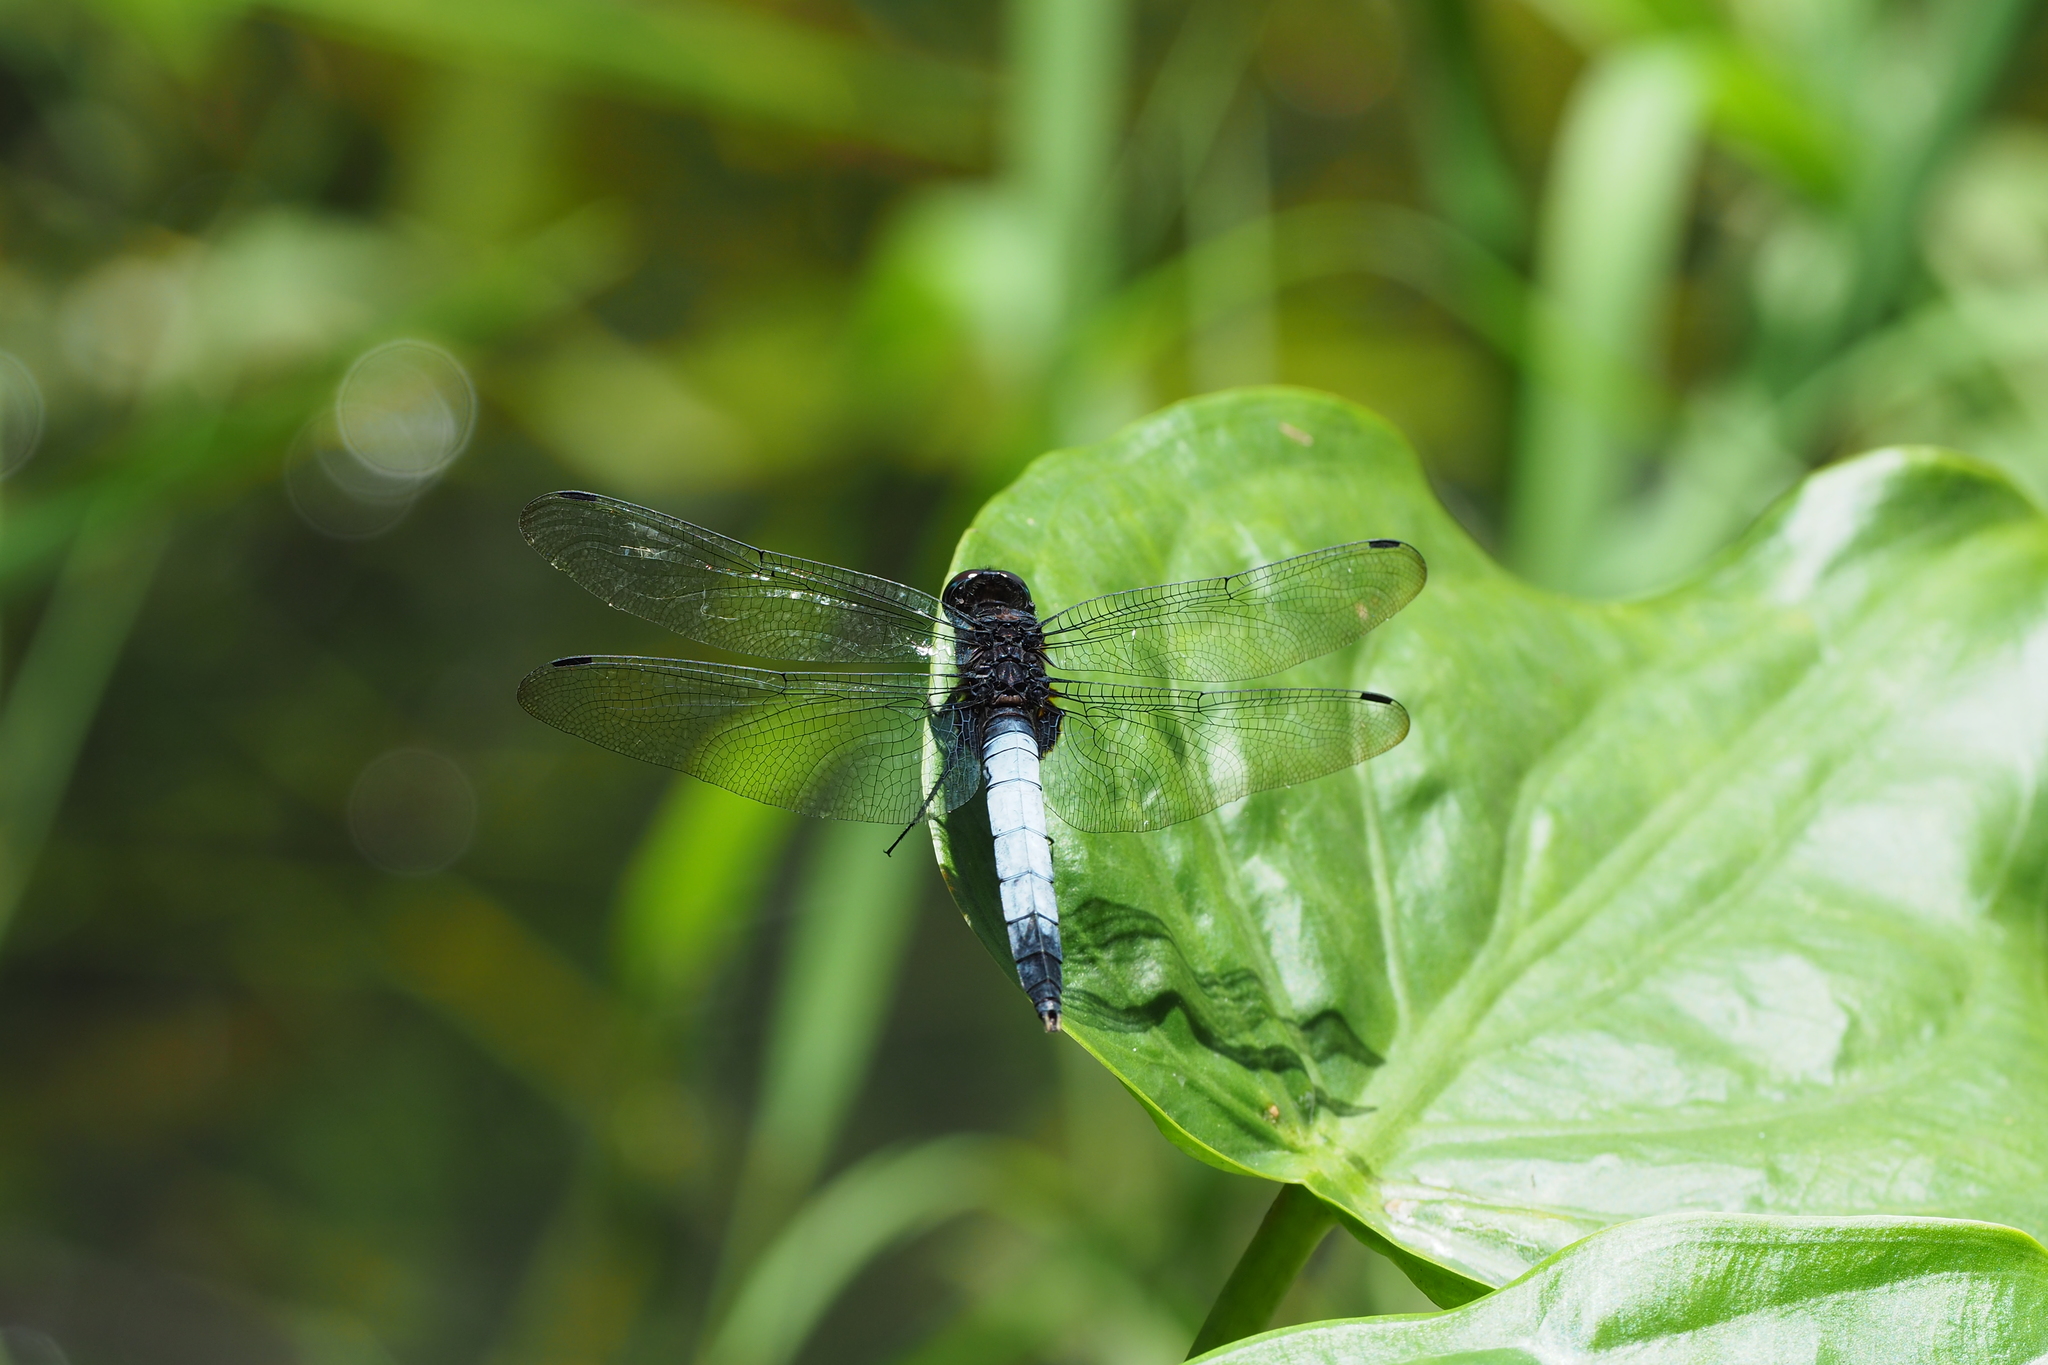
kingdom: Animalia
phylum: Arthropoda
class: Insecta
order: Odonata
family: Libellulidae
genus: Orthetrum
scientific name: Orthetrum triangulare
